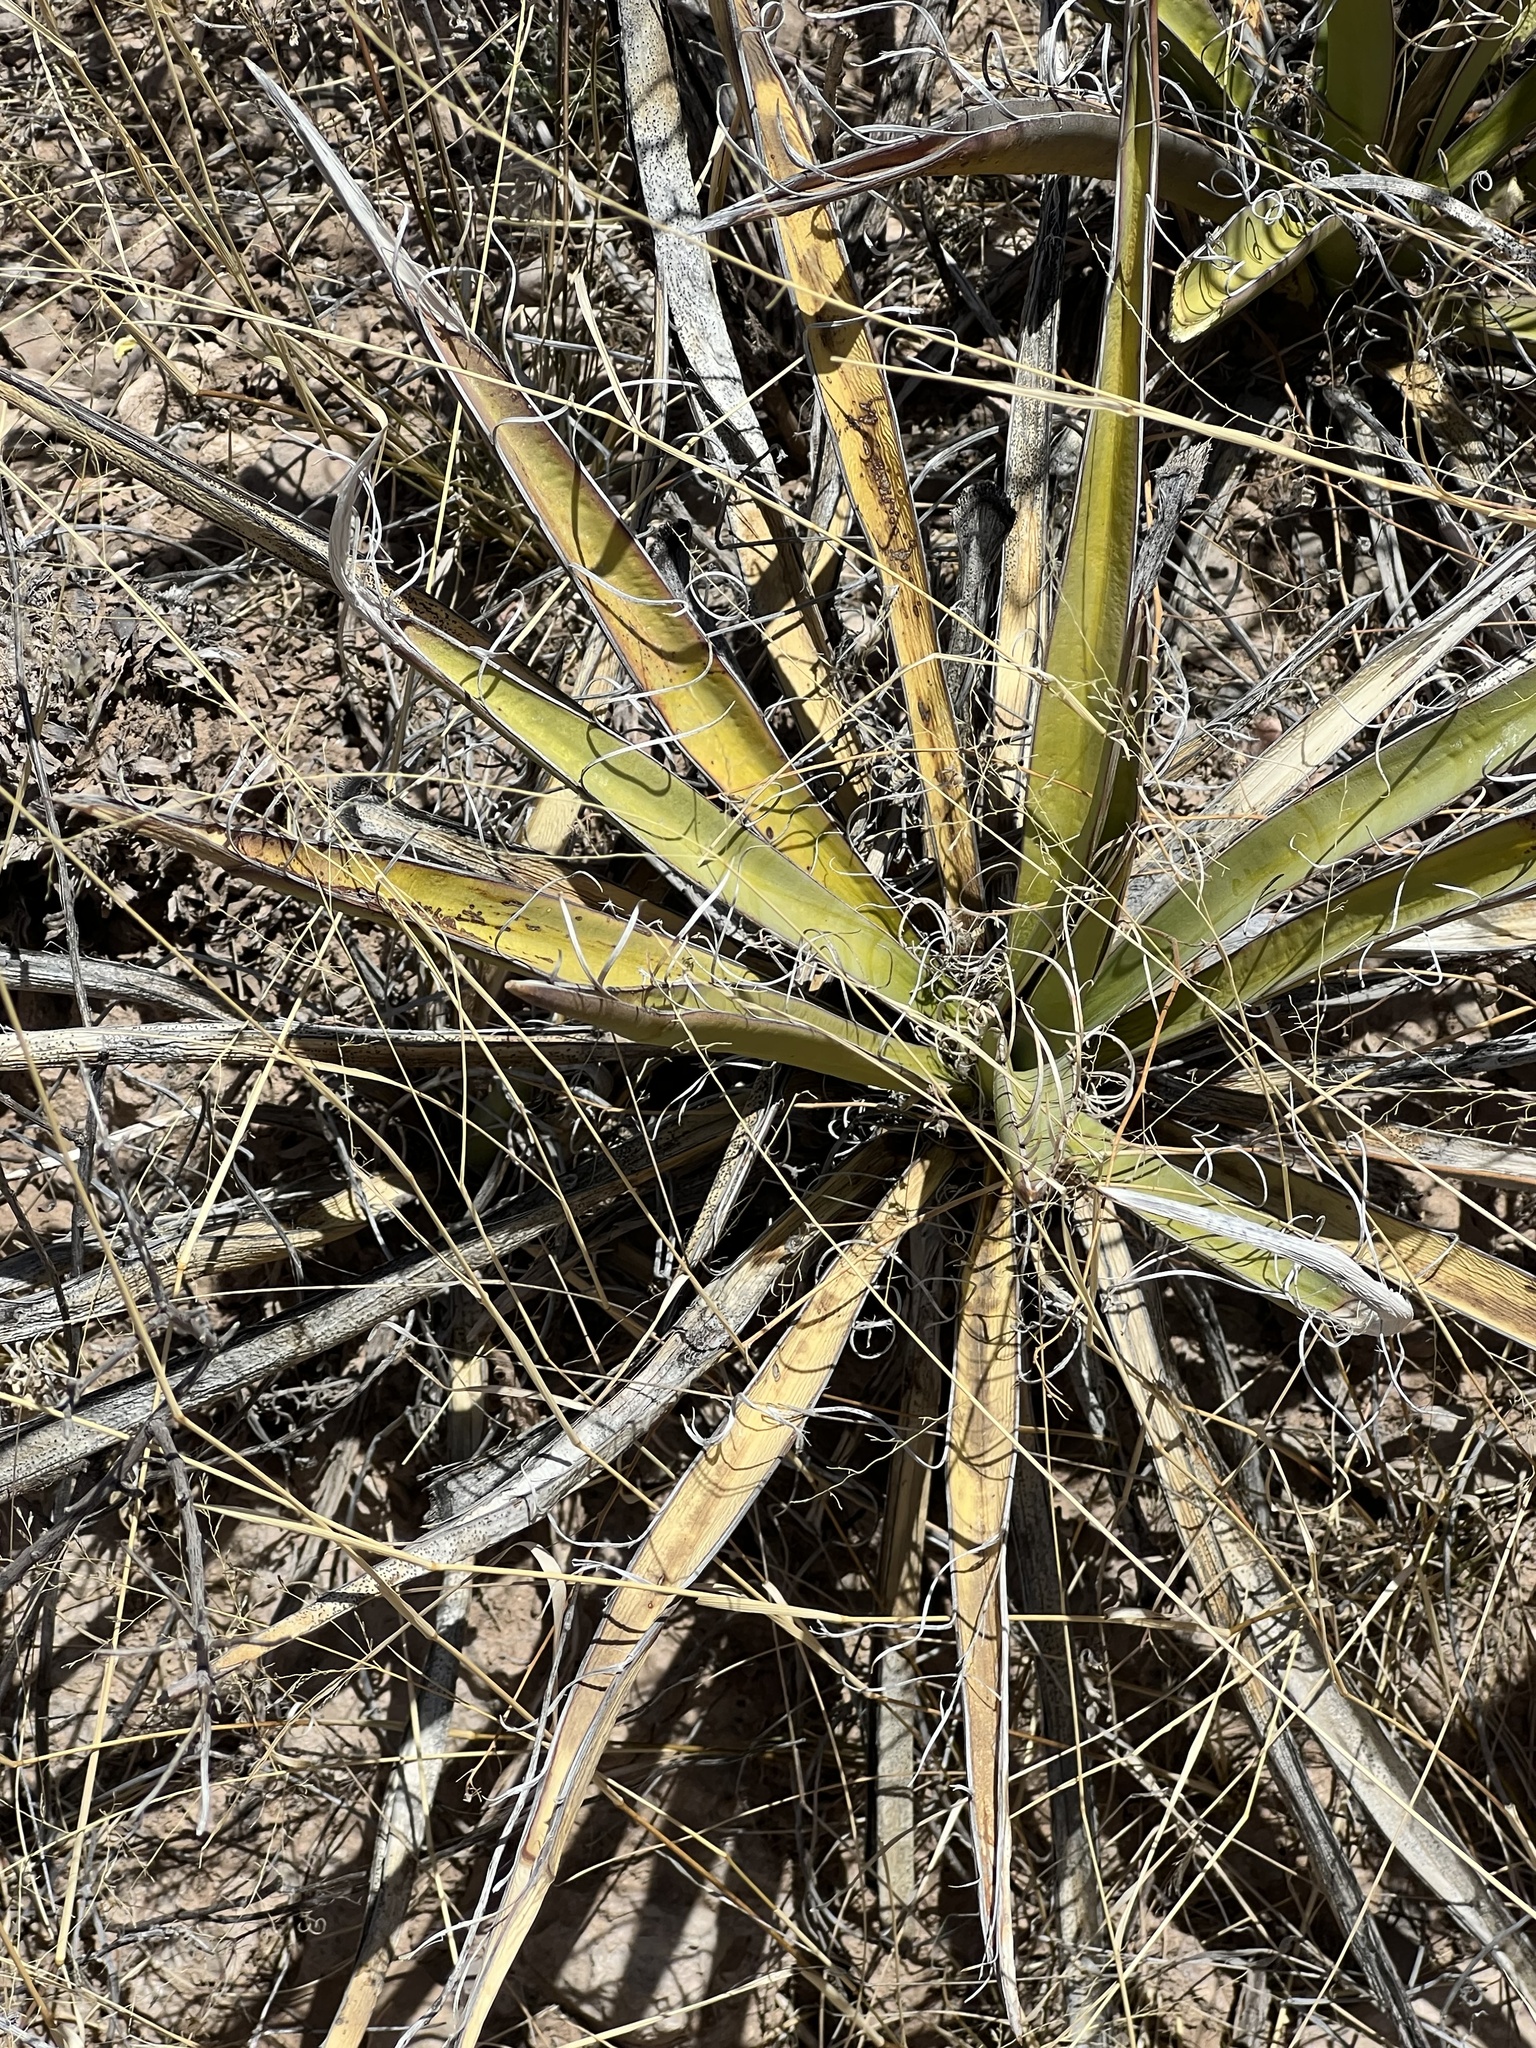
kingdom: Plantae
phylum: Tracheophyta
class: Liliopsida
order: Asparagales
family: Asparagaceae
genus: Yucca
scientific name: Yucca baccata
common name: Banana yucca
